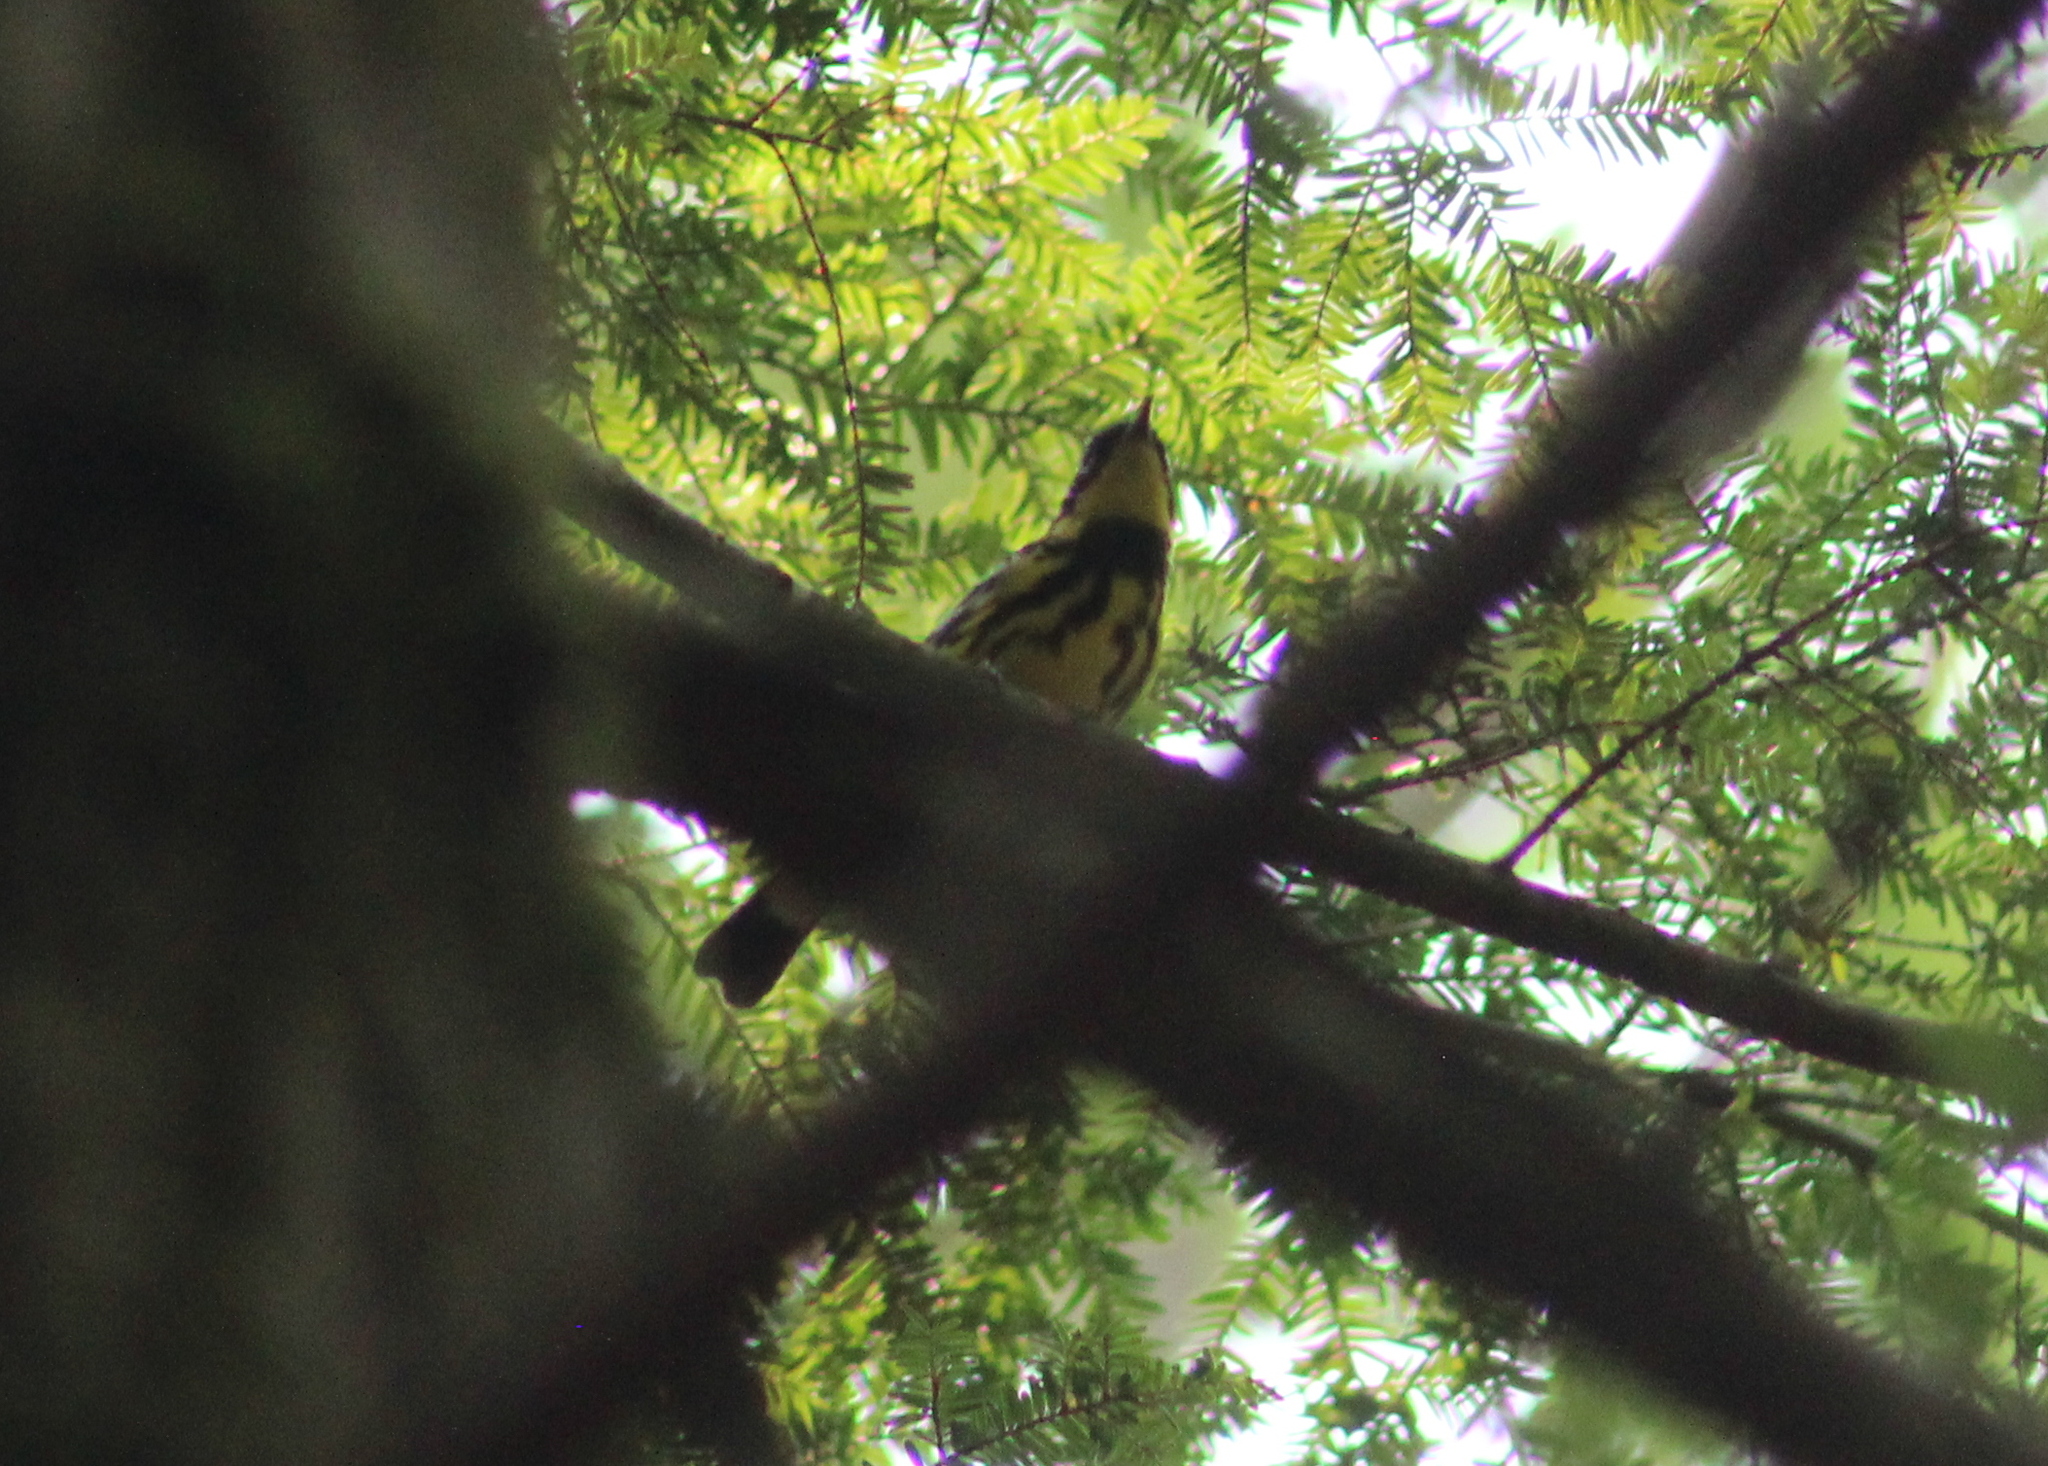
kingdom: Animalia
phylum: Chordata
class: Aves
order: Passeriformes
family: Parulidae
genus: Setophaga
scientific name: Setophaga magnolia
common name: Magnolia warbler
